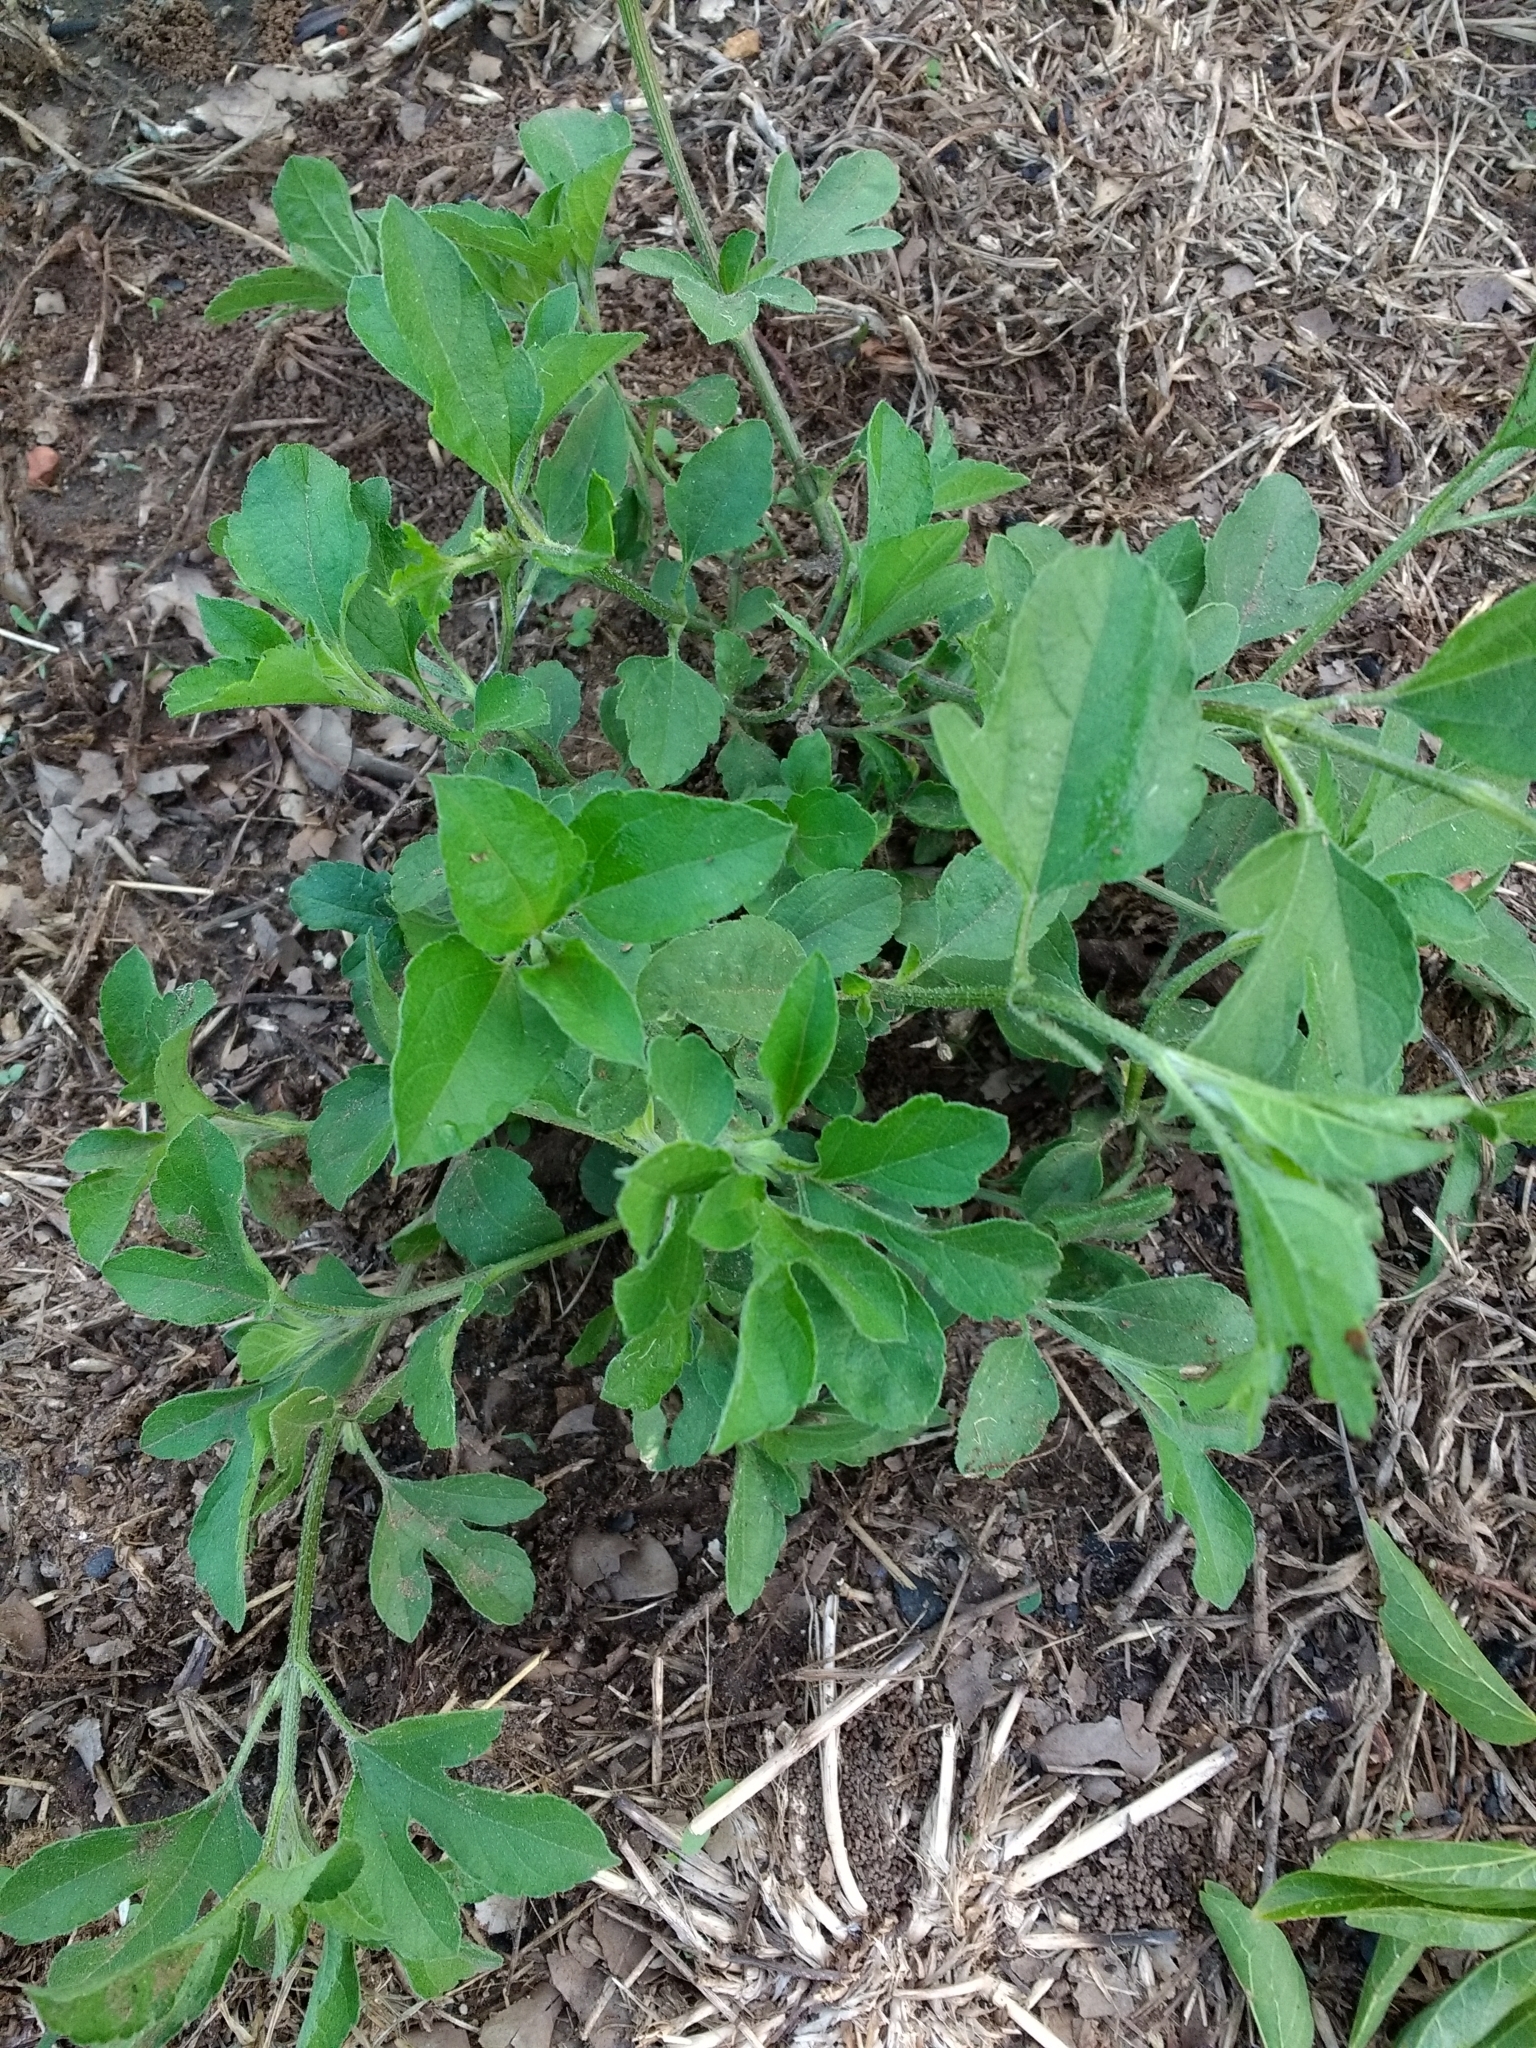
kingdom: Plantae
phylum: Tracheophyta
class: Magnoliopsida
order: Asterales
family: Asteraceae
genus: Ambrosia
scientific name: Ambrosia trifida
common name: Giant ragweed
